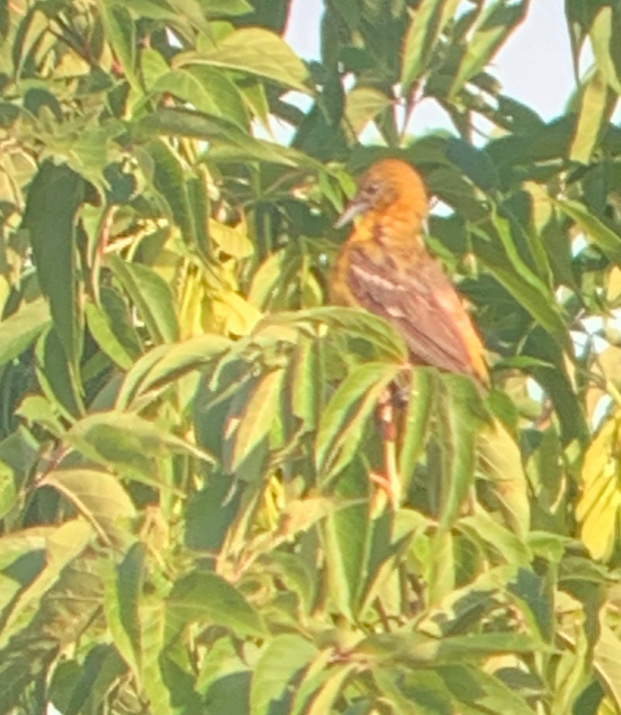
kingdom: Animalia
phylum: Chordata
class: Aves
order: Passeriformes
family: Icteridae
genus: Icterus
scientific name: Icterus galbula
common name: Baltimore oriole
